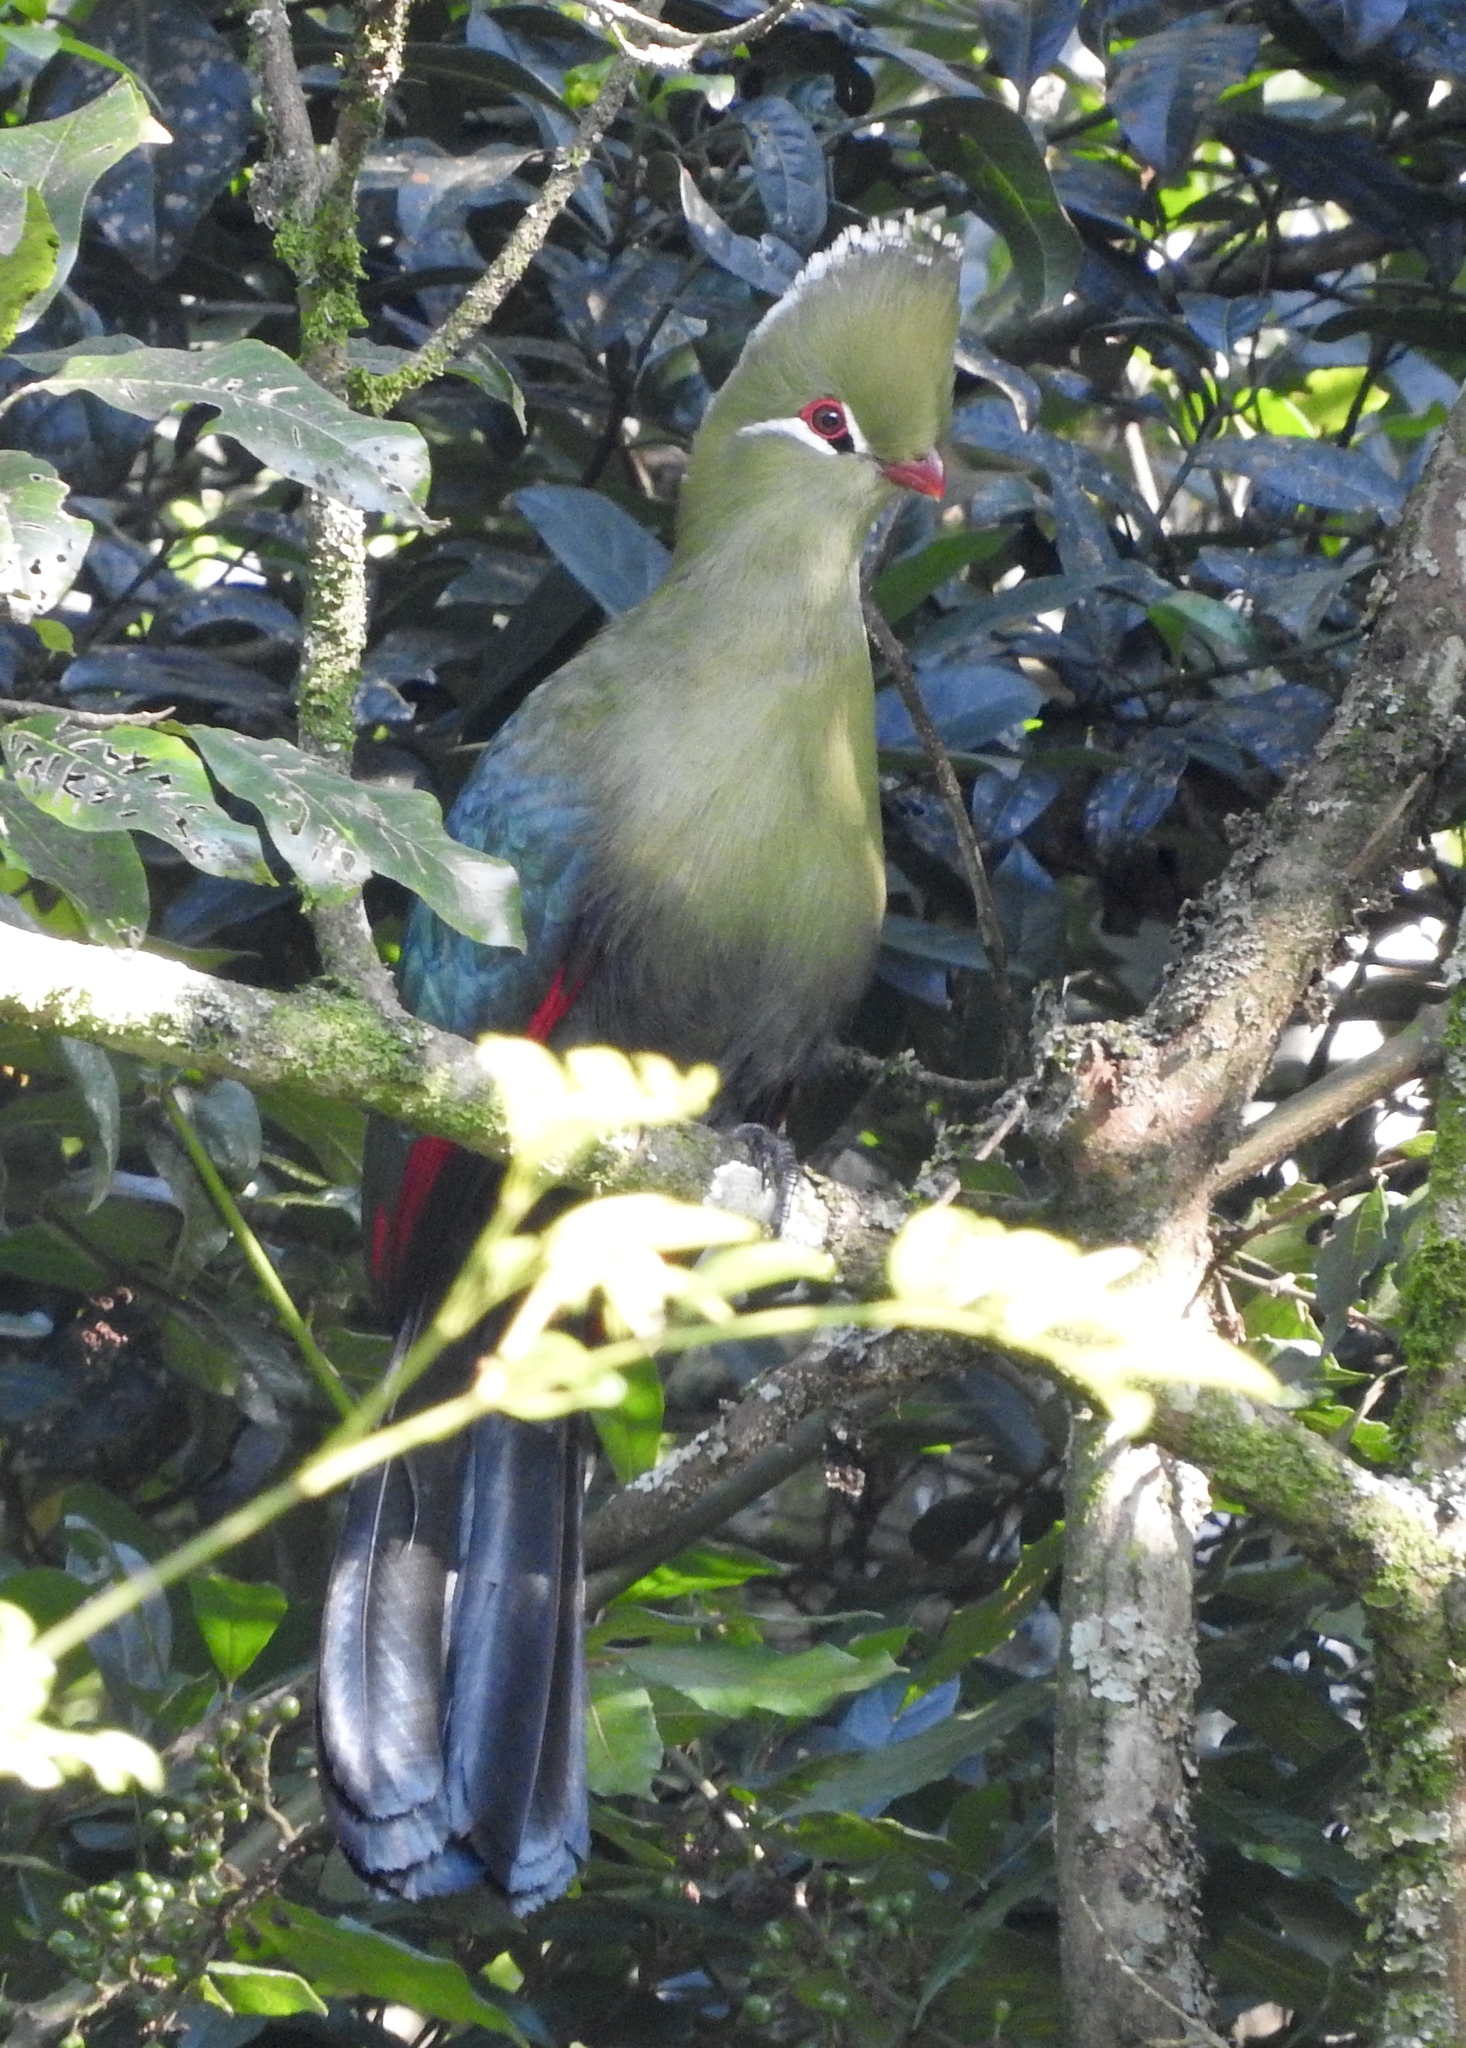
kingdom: Animalia
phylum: Chordata
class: Aves
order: Musophagiformes
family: Musophagidae
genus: Tauraco
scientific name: Tauraco corythaix
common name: Knysna turaco
